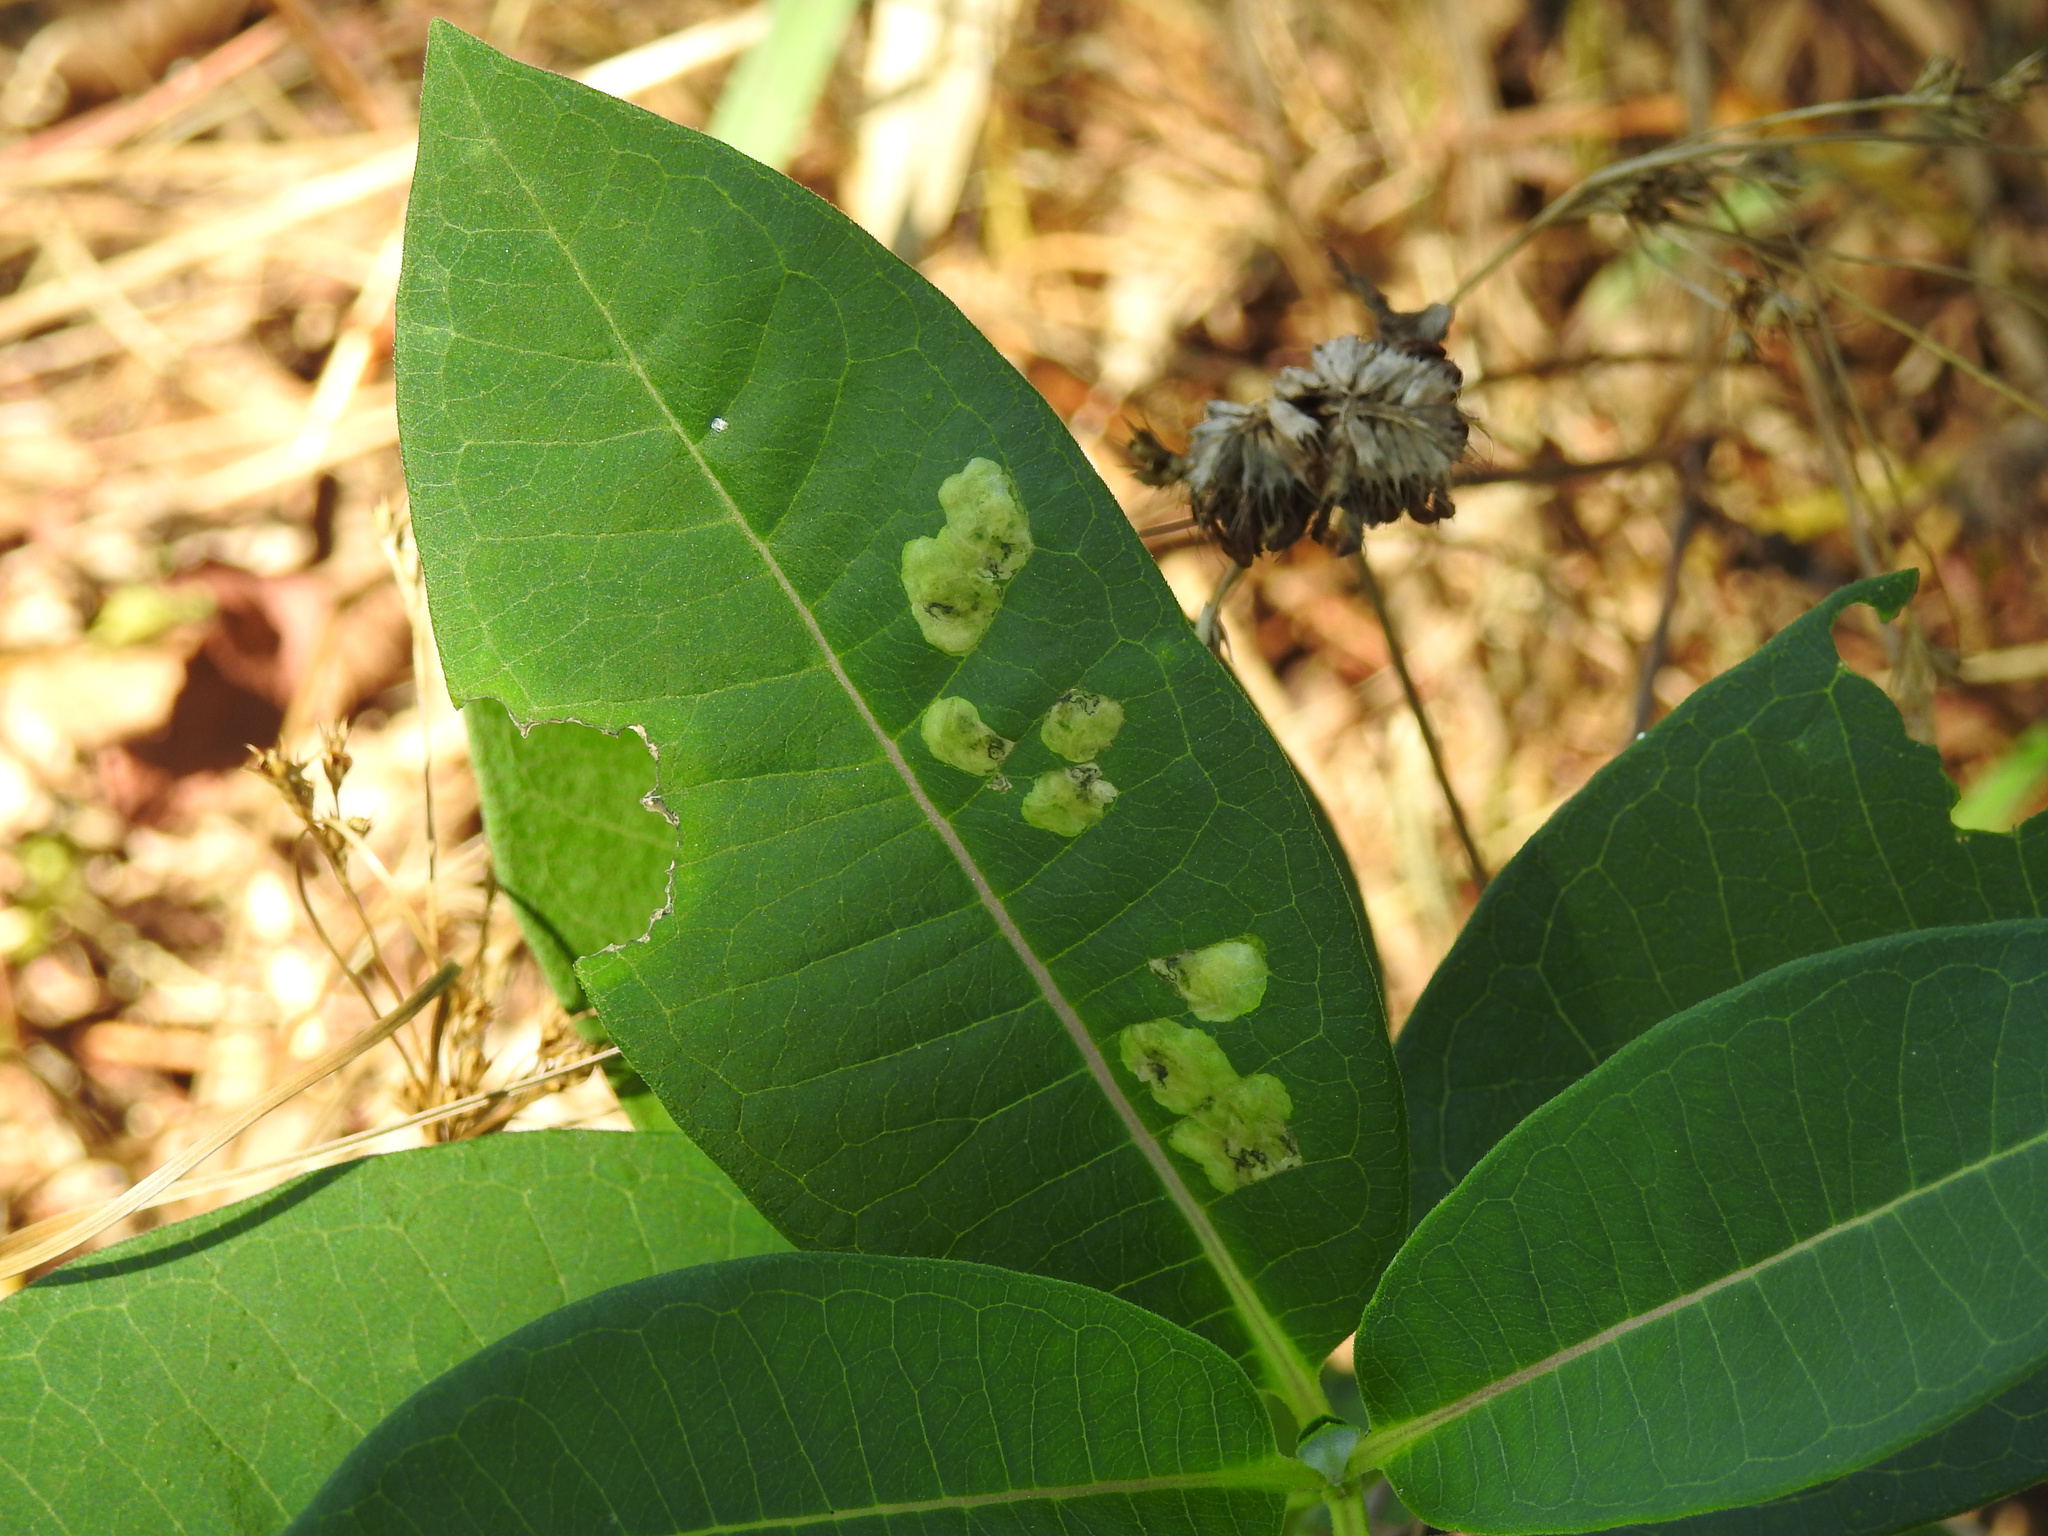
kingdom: Animalia
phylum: Arthropoda
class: Insecta
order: Diptera
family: Agromyzidae
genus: Liriomyza
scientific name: Liriomyza asclepiadis
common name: Milkweed leaf-miner fly
